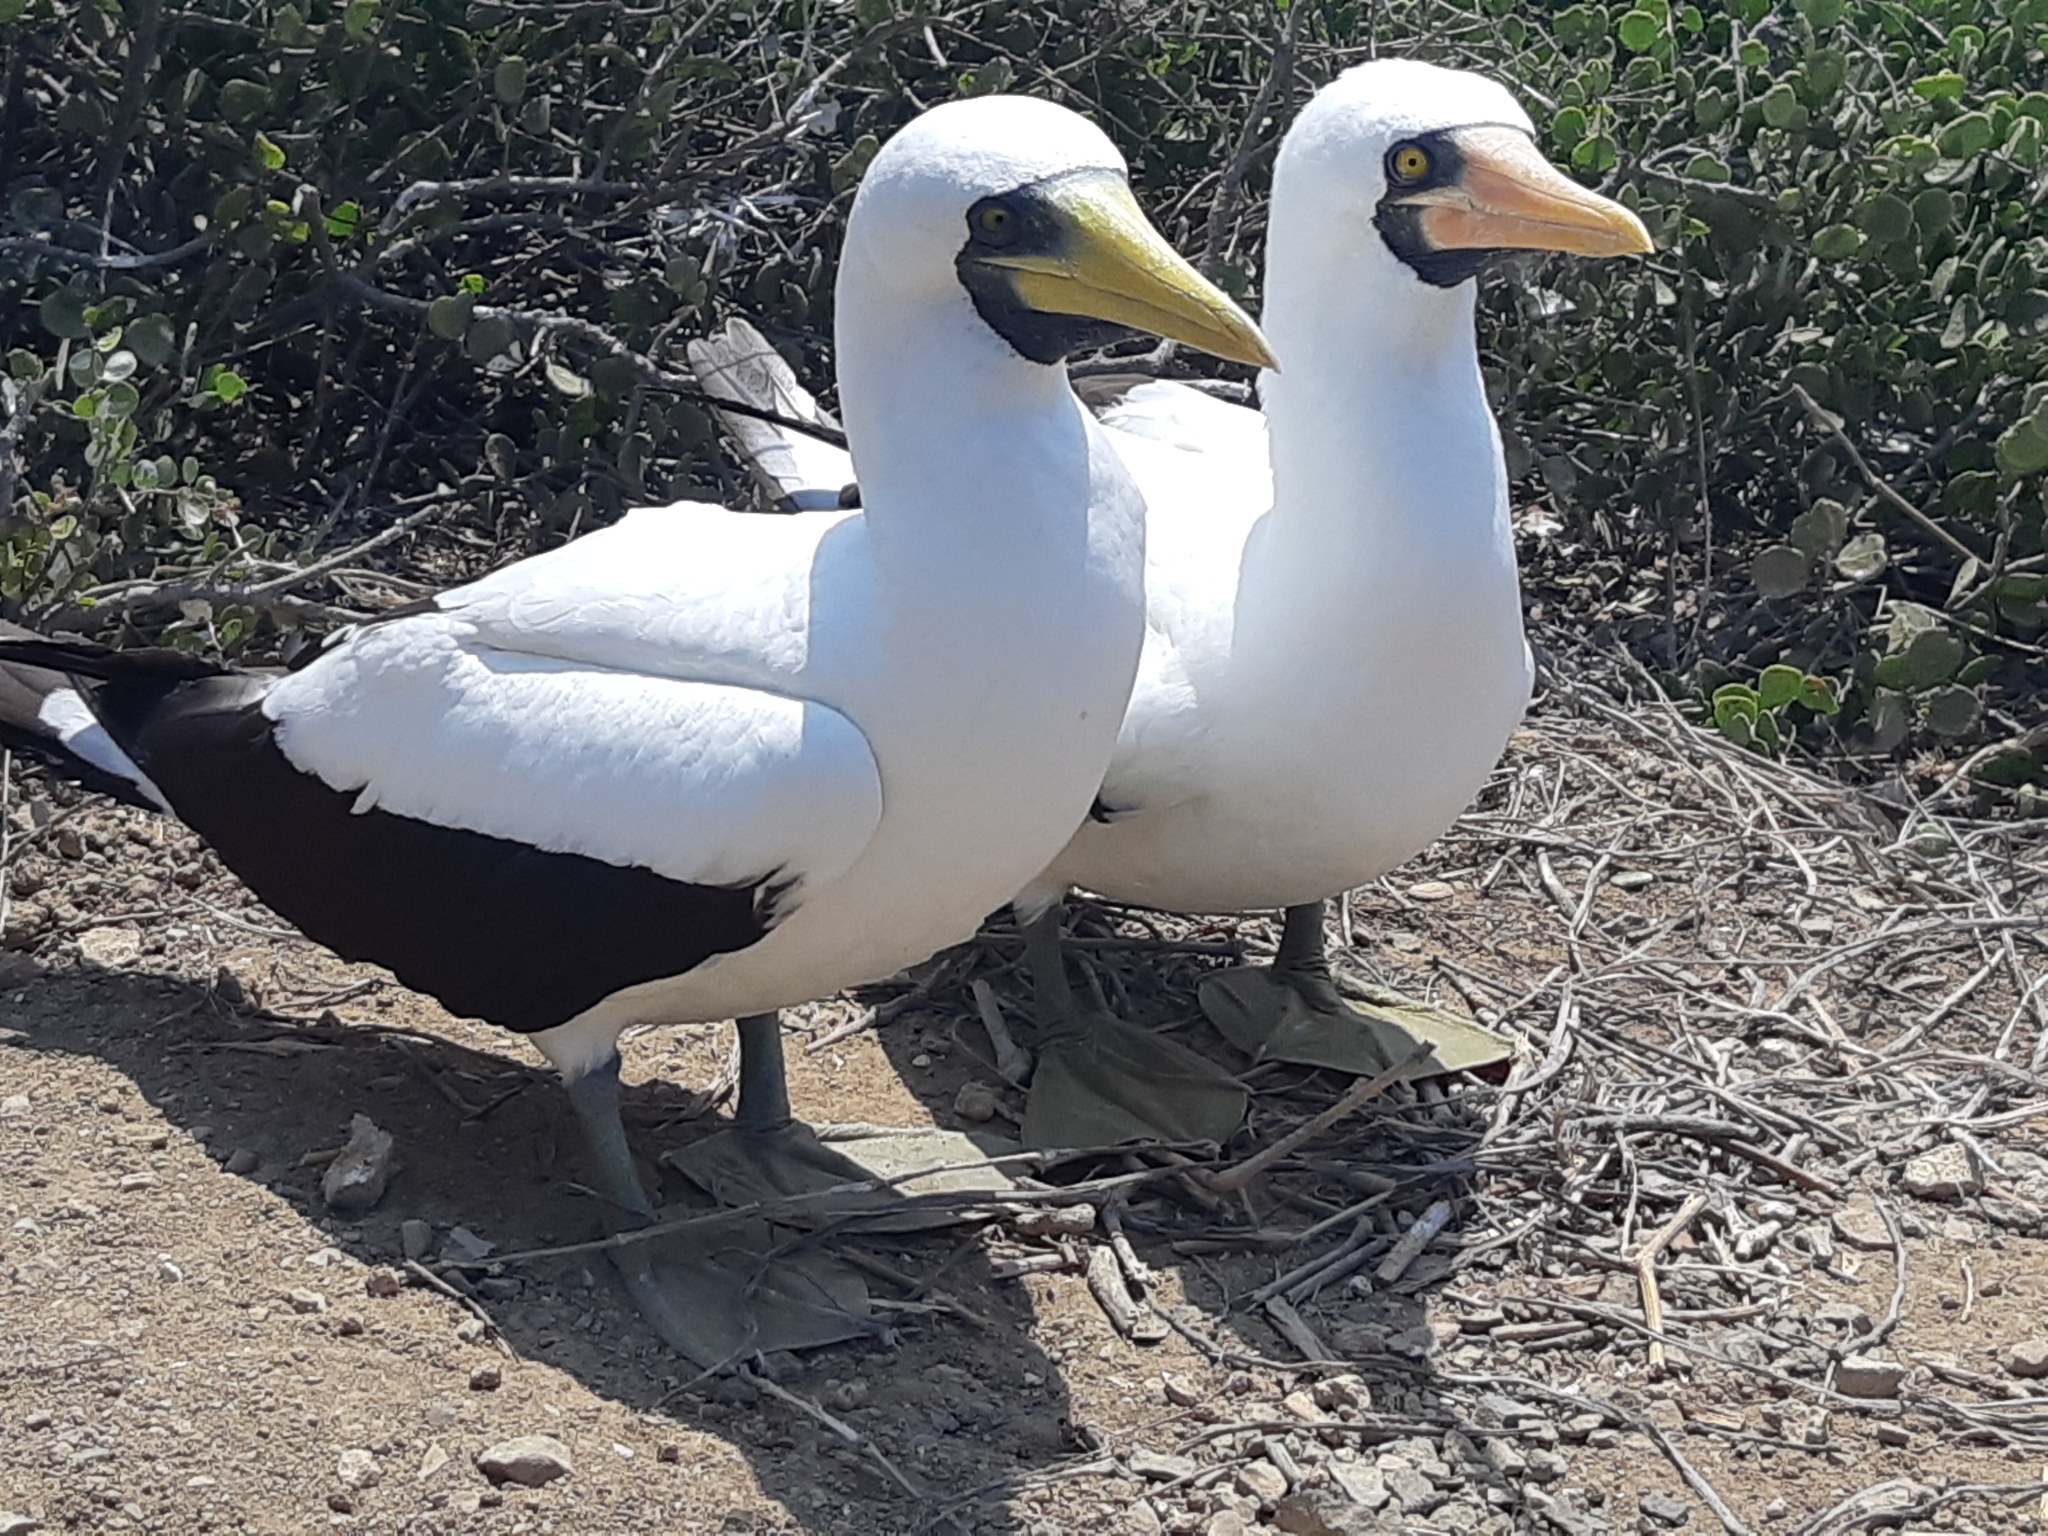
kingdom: Animalia
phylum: Chordata
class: Aves
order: Suliformes
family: Sulidae
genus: Sula
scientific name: Sula dactylatra
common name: Masked booby
